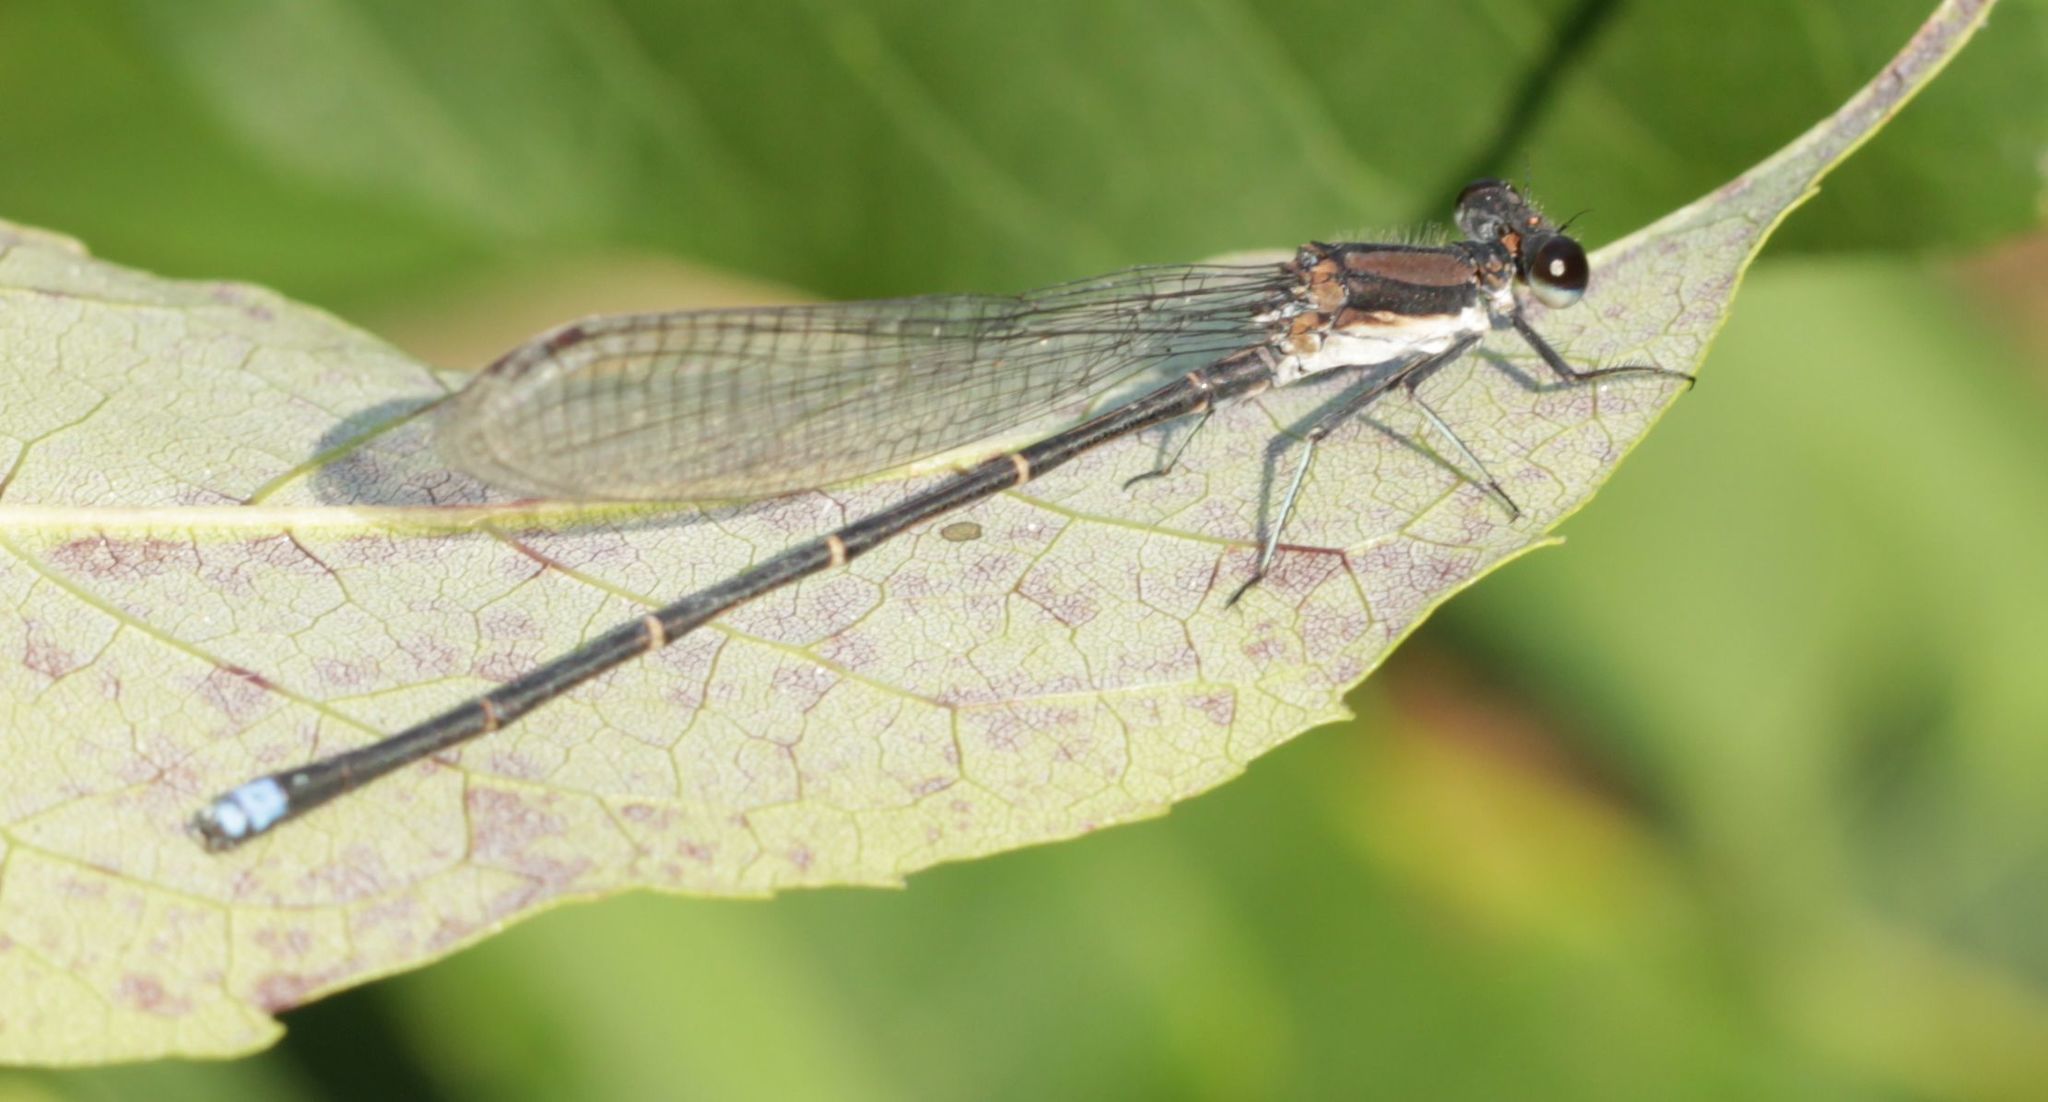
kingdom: Animalia
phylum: Arthropoda
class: Insecta
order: Odonata
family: Coenagrionidae
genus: Argia
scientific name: Argia tibialis
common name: Blue-tipped dancer
